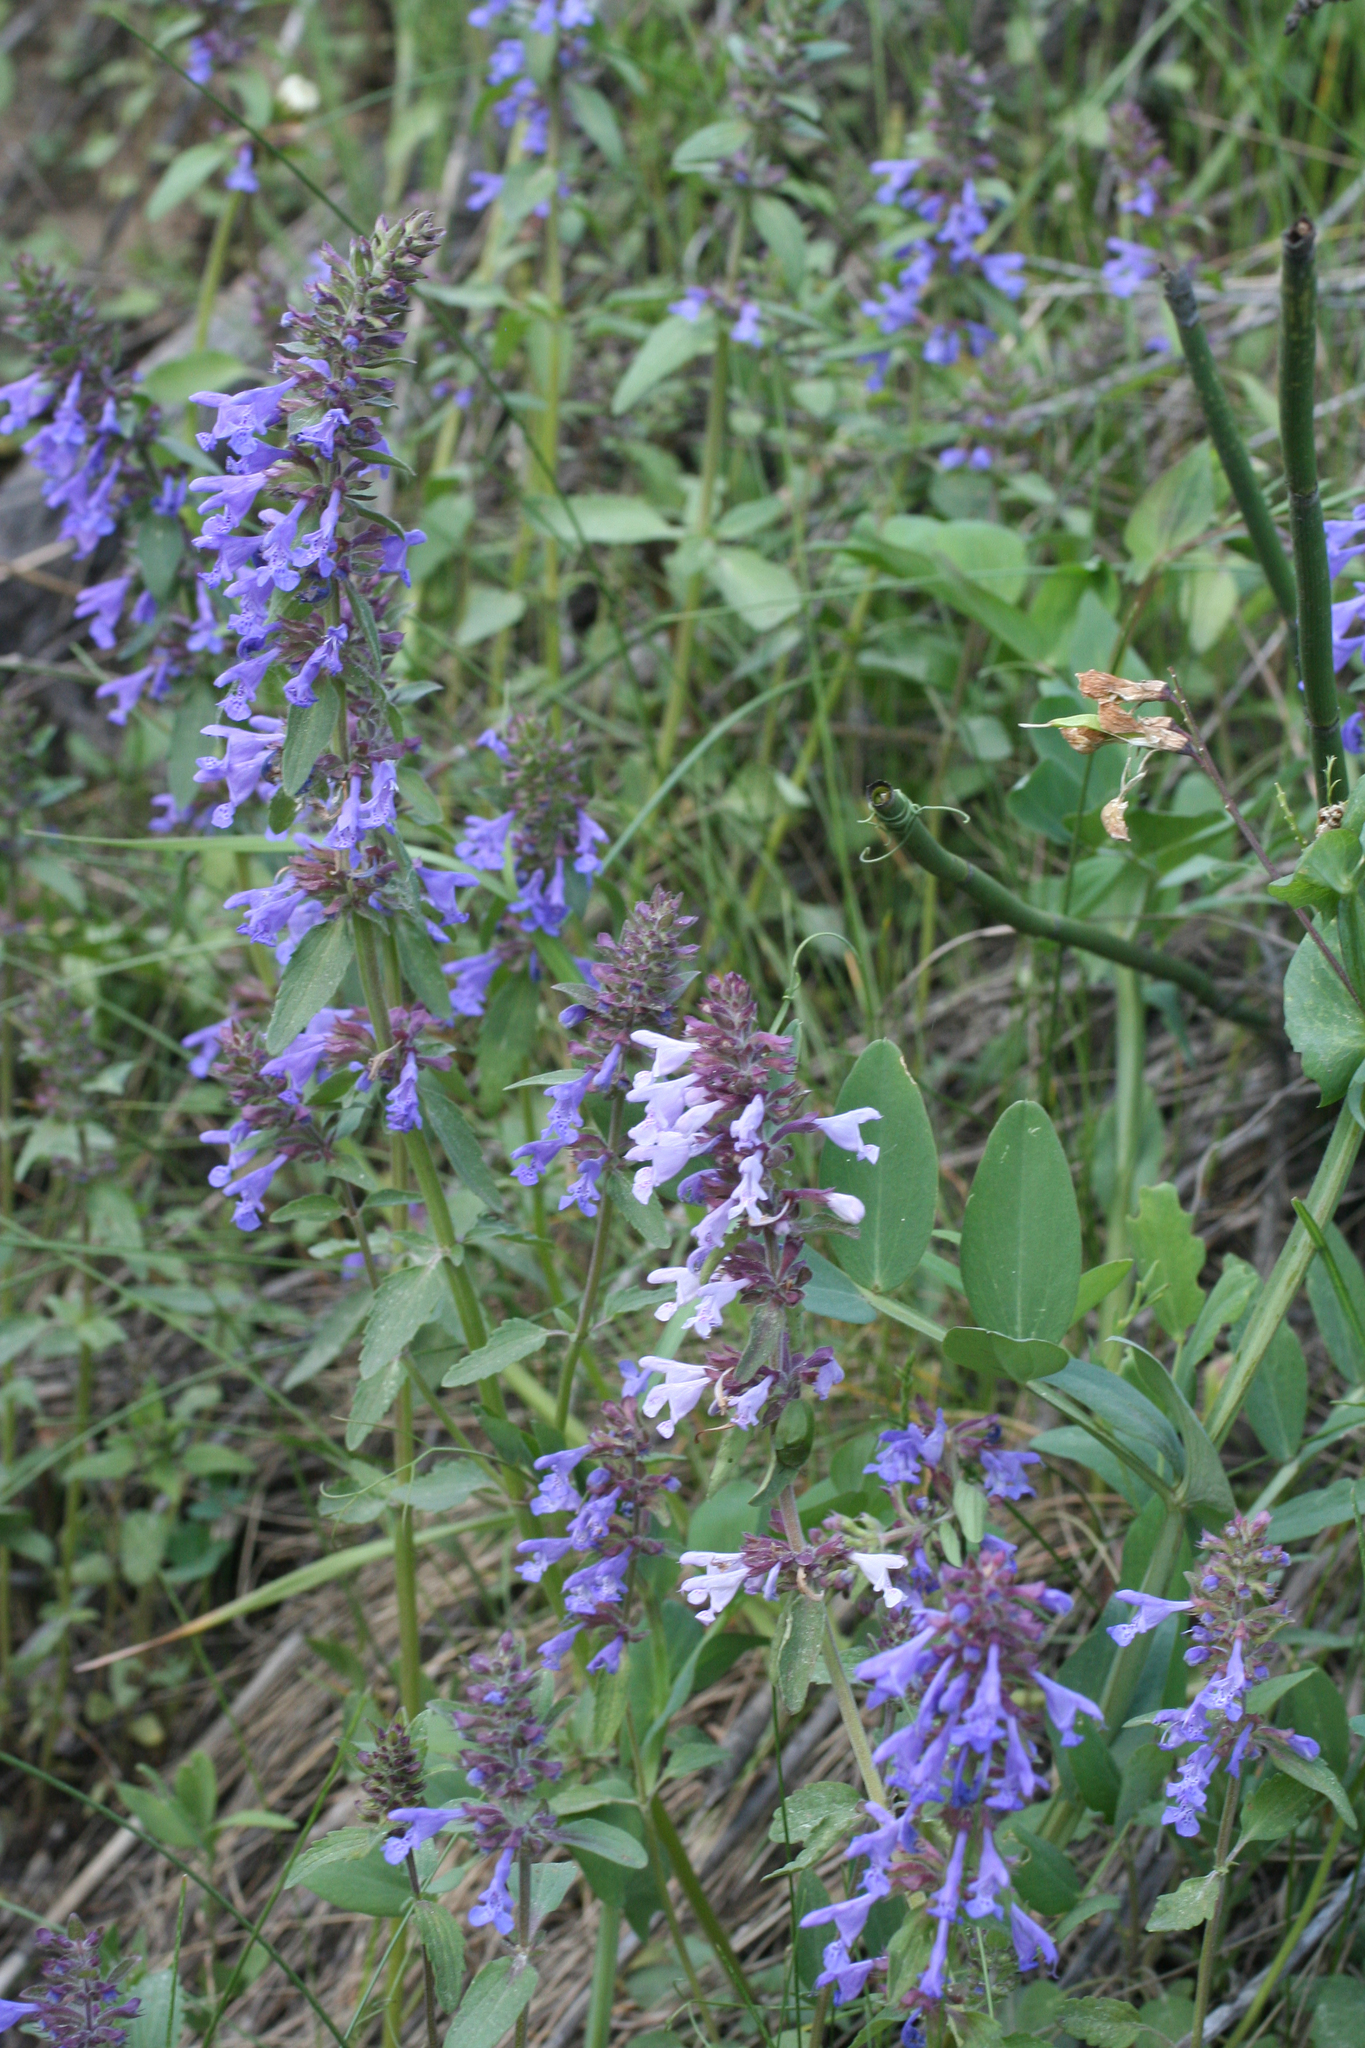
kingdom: Plantae
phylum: Tracheophyta
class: Magnoliopsida
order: Lamiales
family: Lamiaceae
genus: Dracocephalum
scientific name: Dracocephalum nutans
